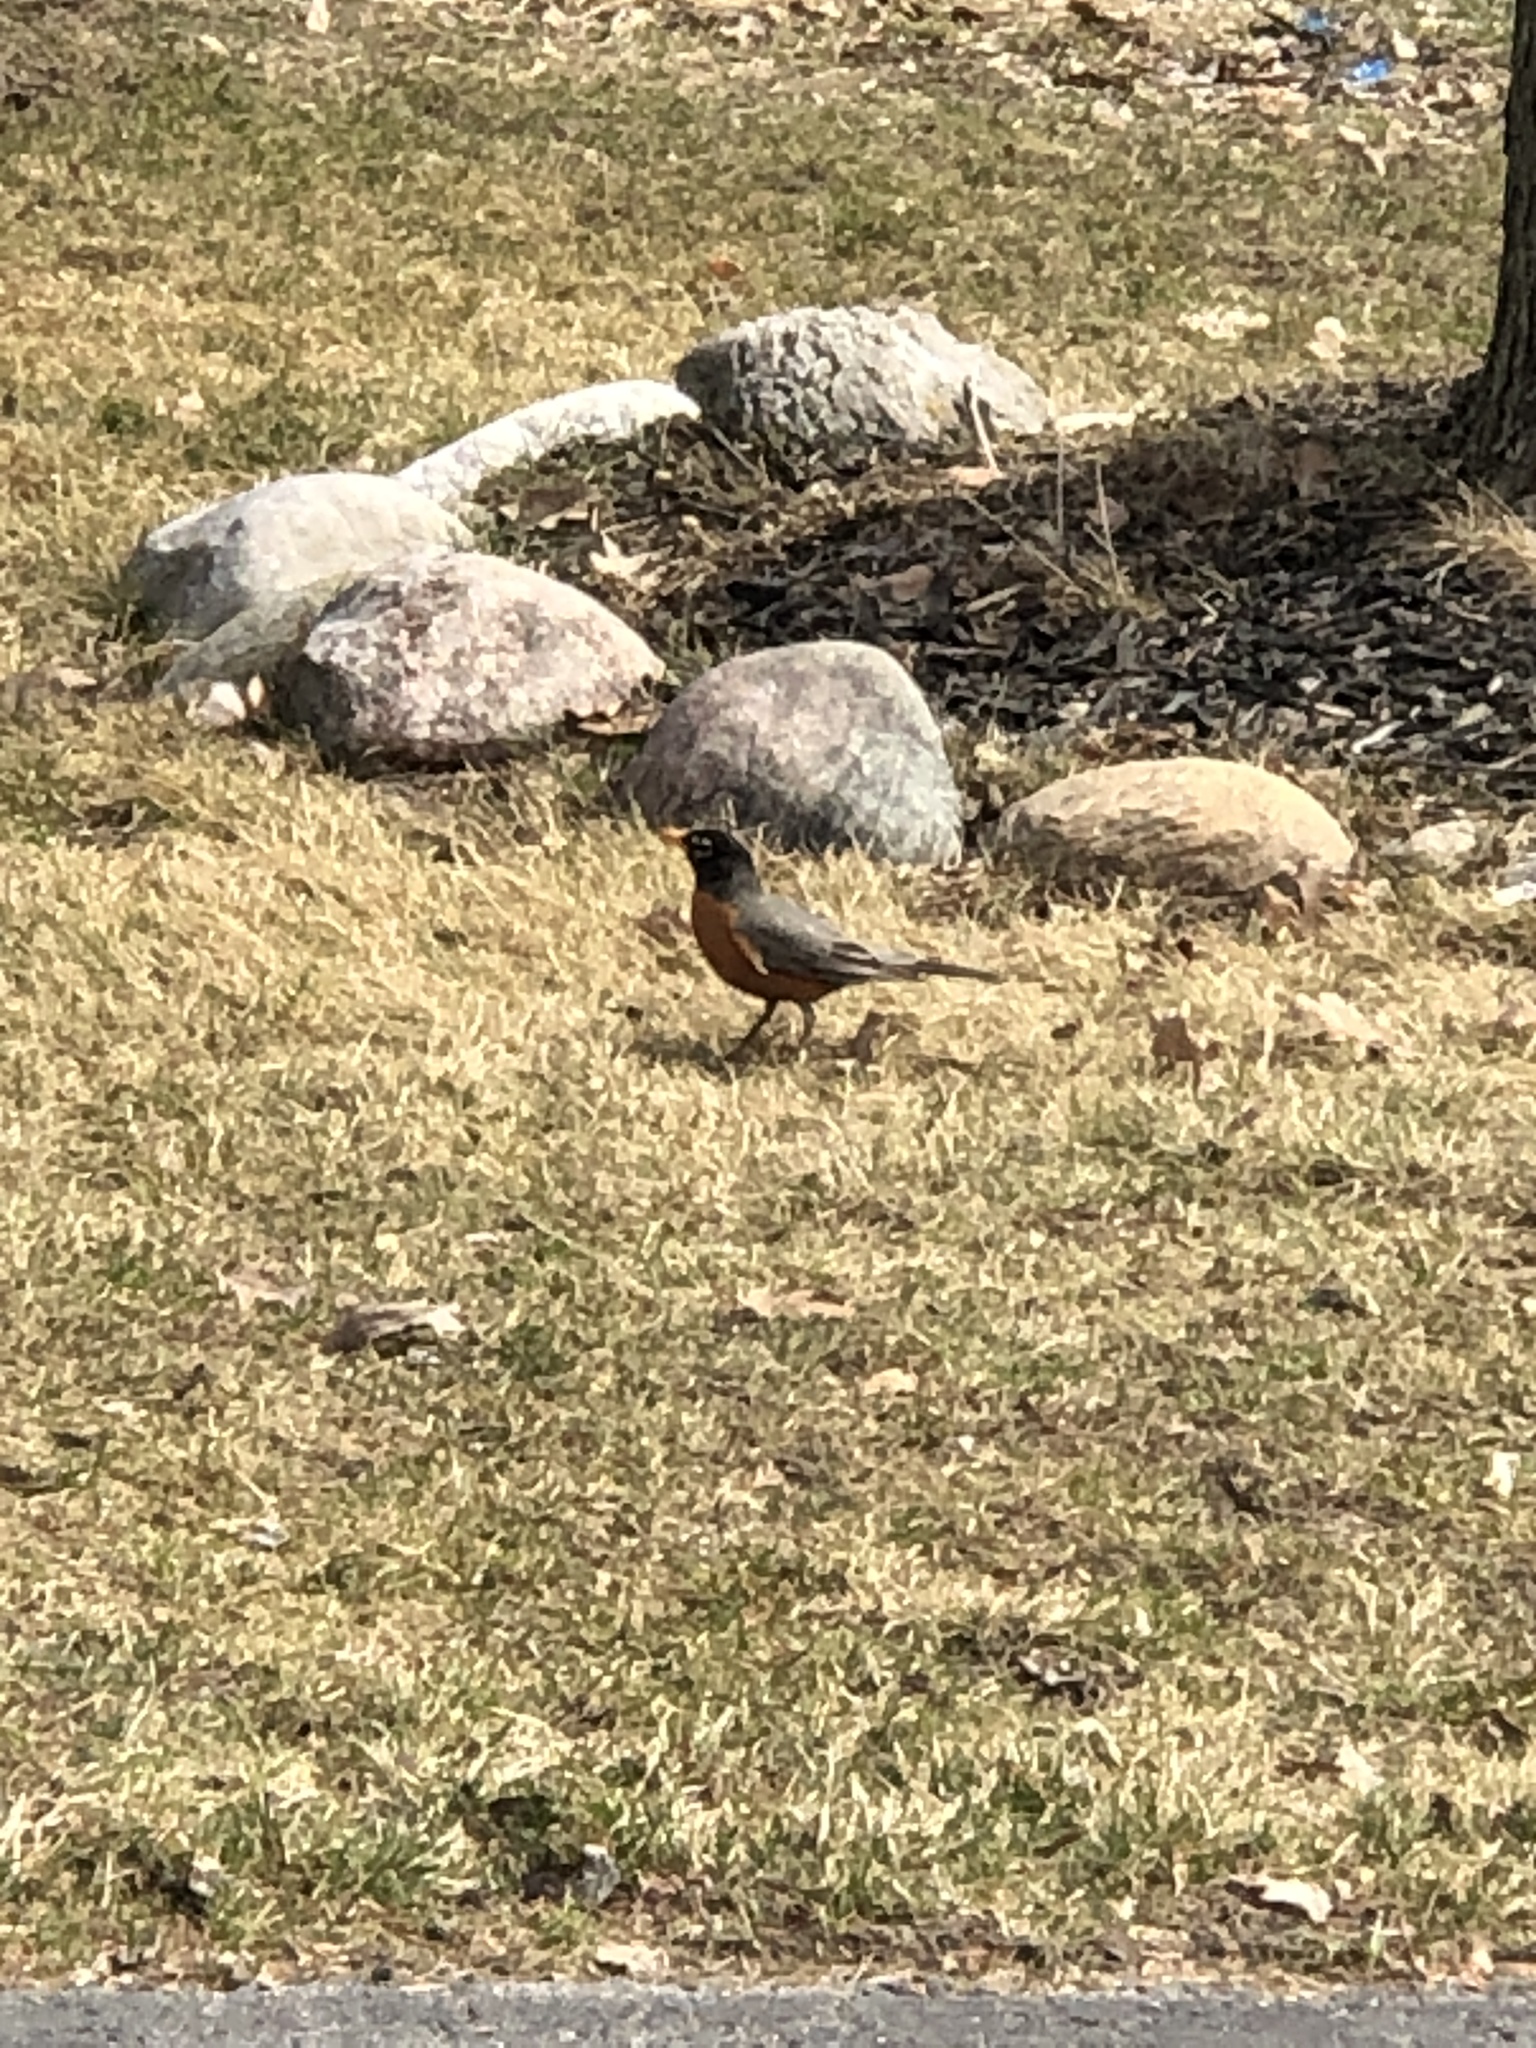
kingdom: Animalia
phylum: Chordata
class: Aves
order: Passeriformes
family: Turdidae
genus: Turdus
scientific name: Turdus migratorius
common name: American robin
